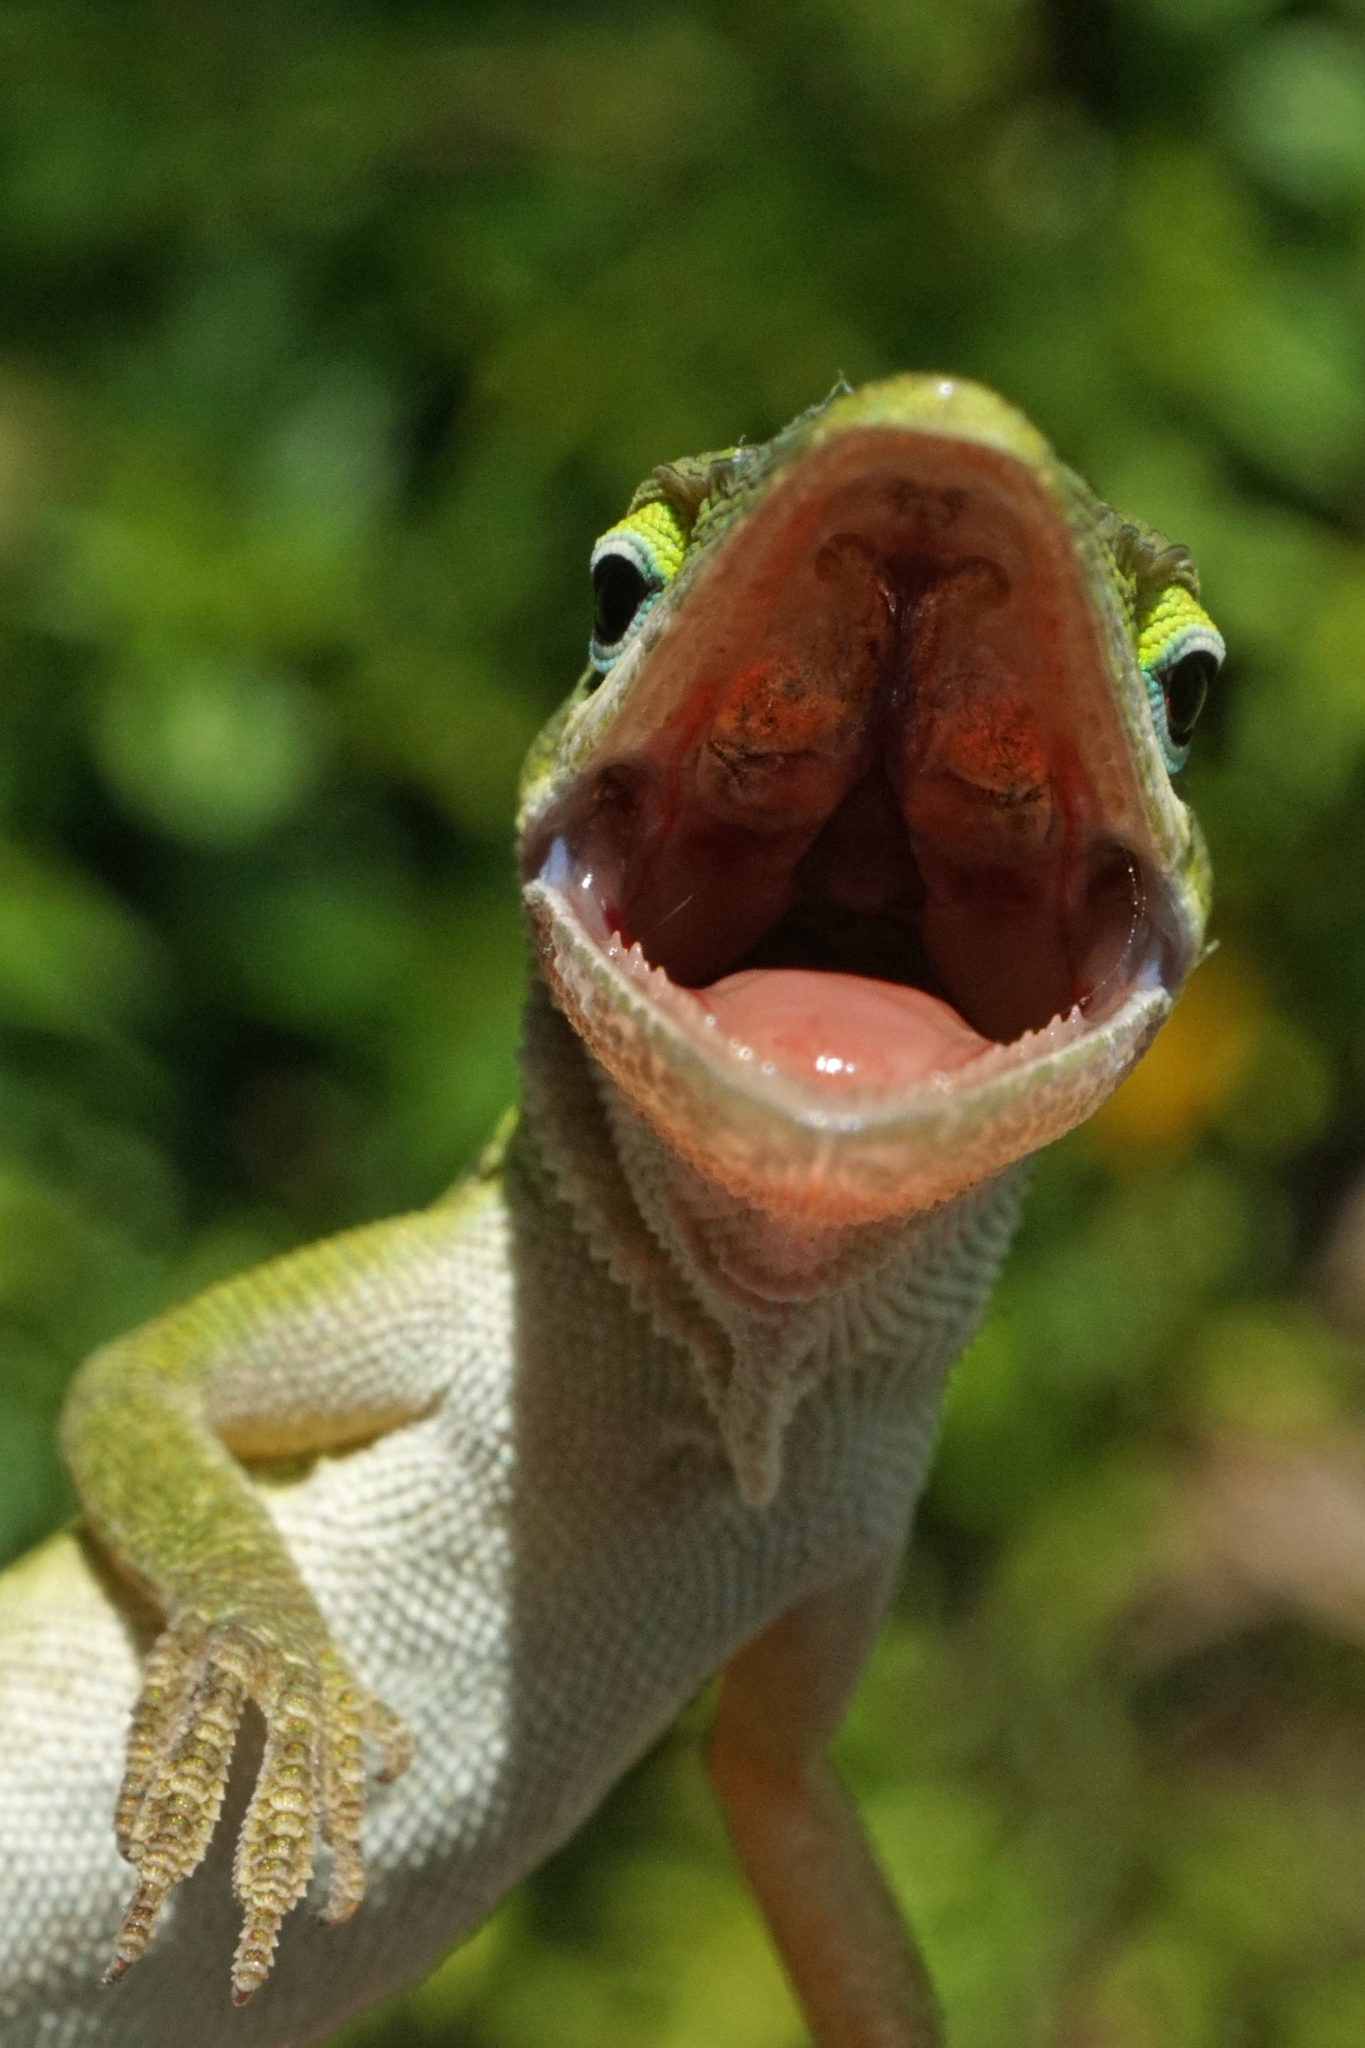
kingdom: Animalia
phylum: Chordata
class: Squamata
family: Dactyloidae
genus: Anolis
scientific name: Anolis carolinensis
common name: Green anole
